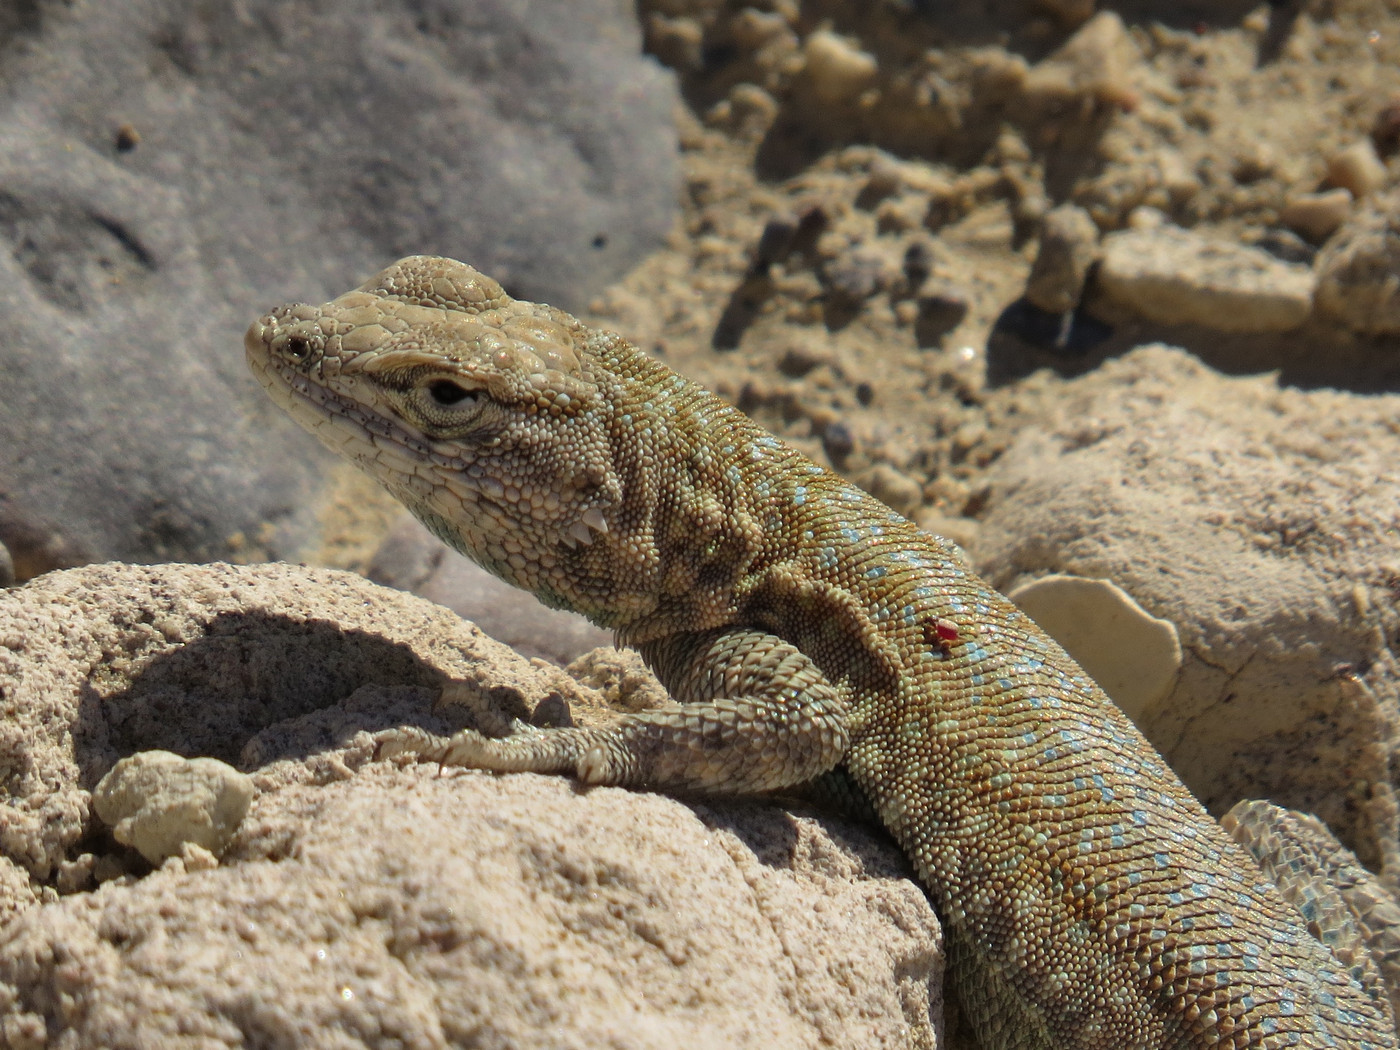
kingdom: Animalia
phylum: Chordata
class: Squamata
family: Phrynosomatidae
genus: Uta
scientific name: Uta stansburiana
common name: Side-blotched lizard
